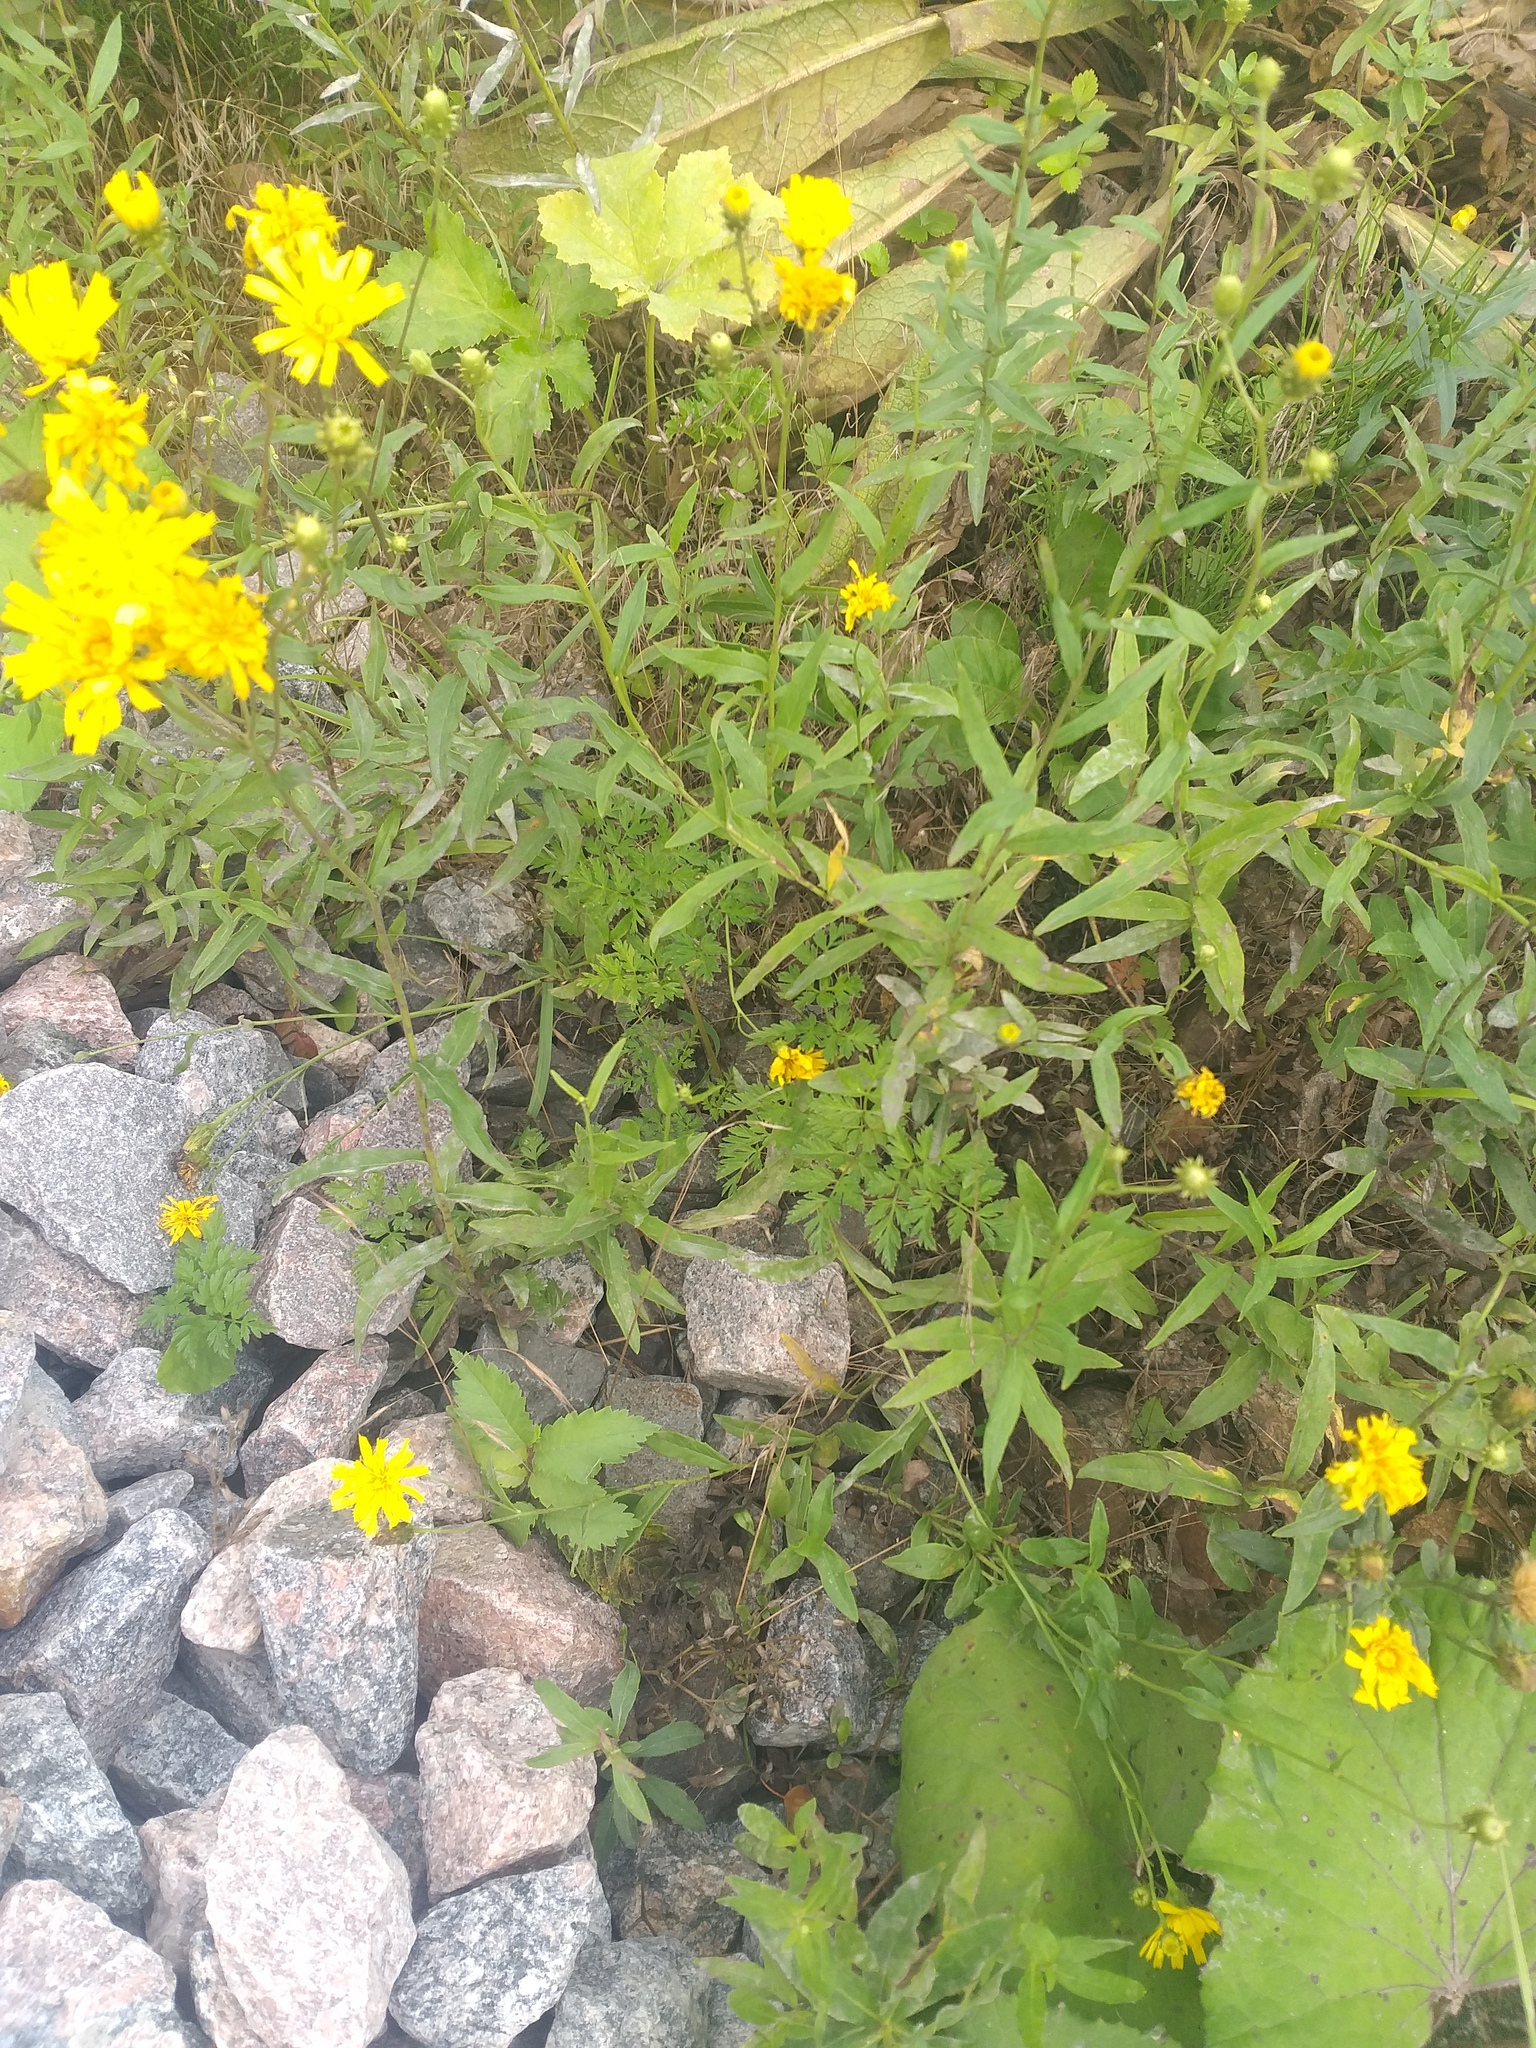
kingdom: Plantae
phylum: Tracheophyta
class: Magnoliopsida
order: Apiales
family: Apiaceae
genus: Anthriscus
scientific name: Anthriscus sylvestris
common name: Cow parsley
